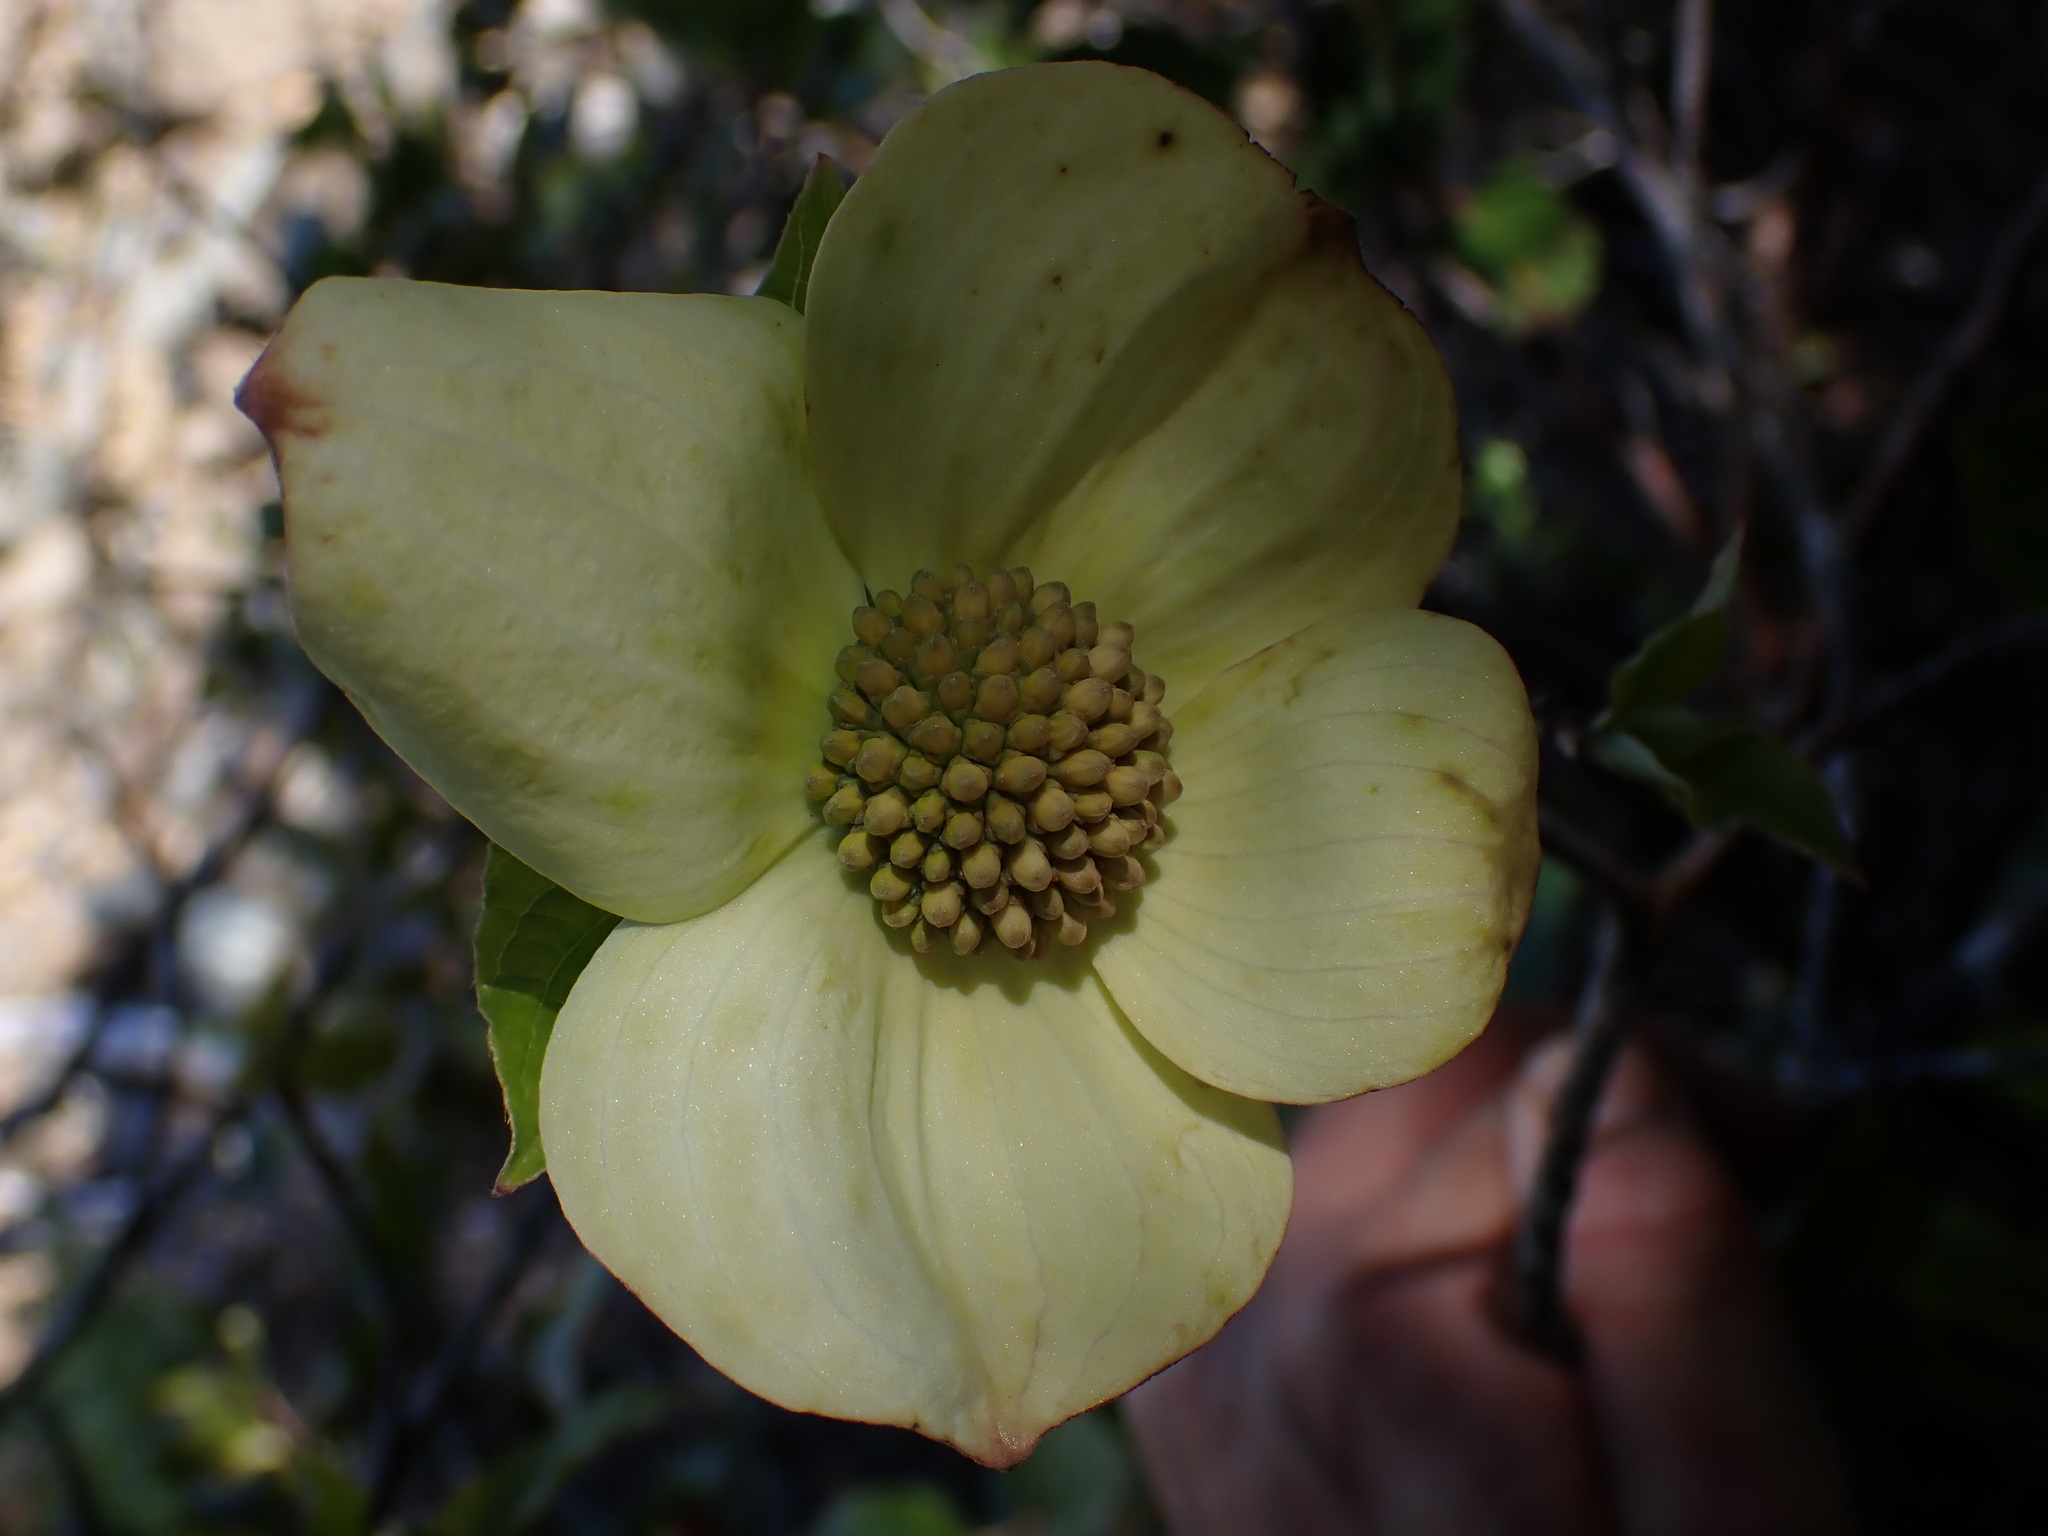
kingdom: Plantae
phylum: Tracheophyta
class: Magnoliopsida
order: Cornales
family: Cornaceae
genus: Cornus
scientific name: Cornus nuttallii
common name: Pacific dogwood
